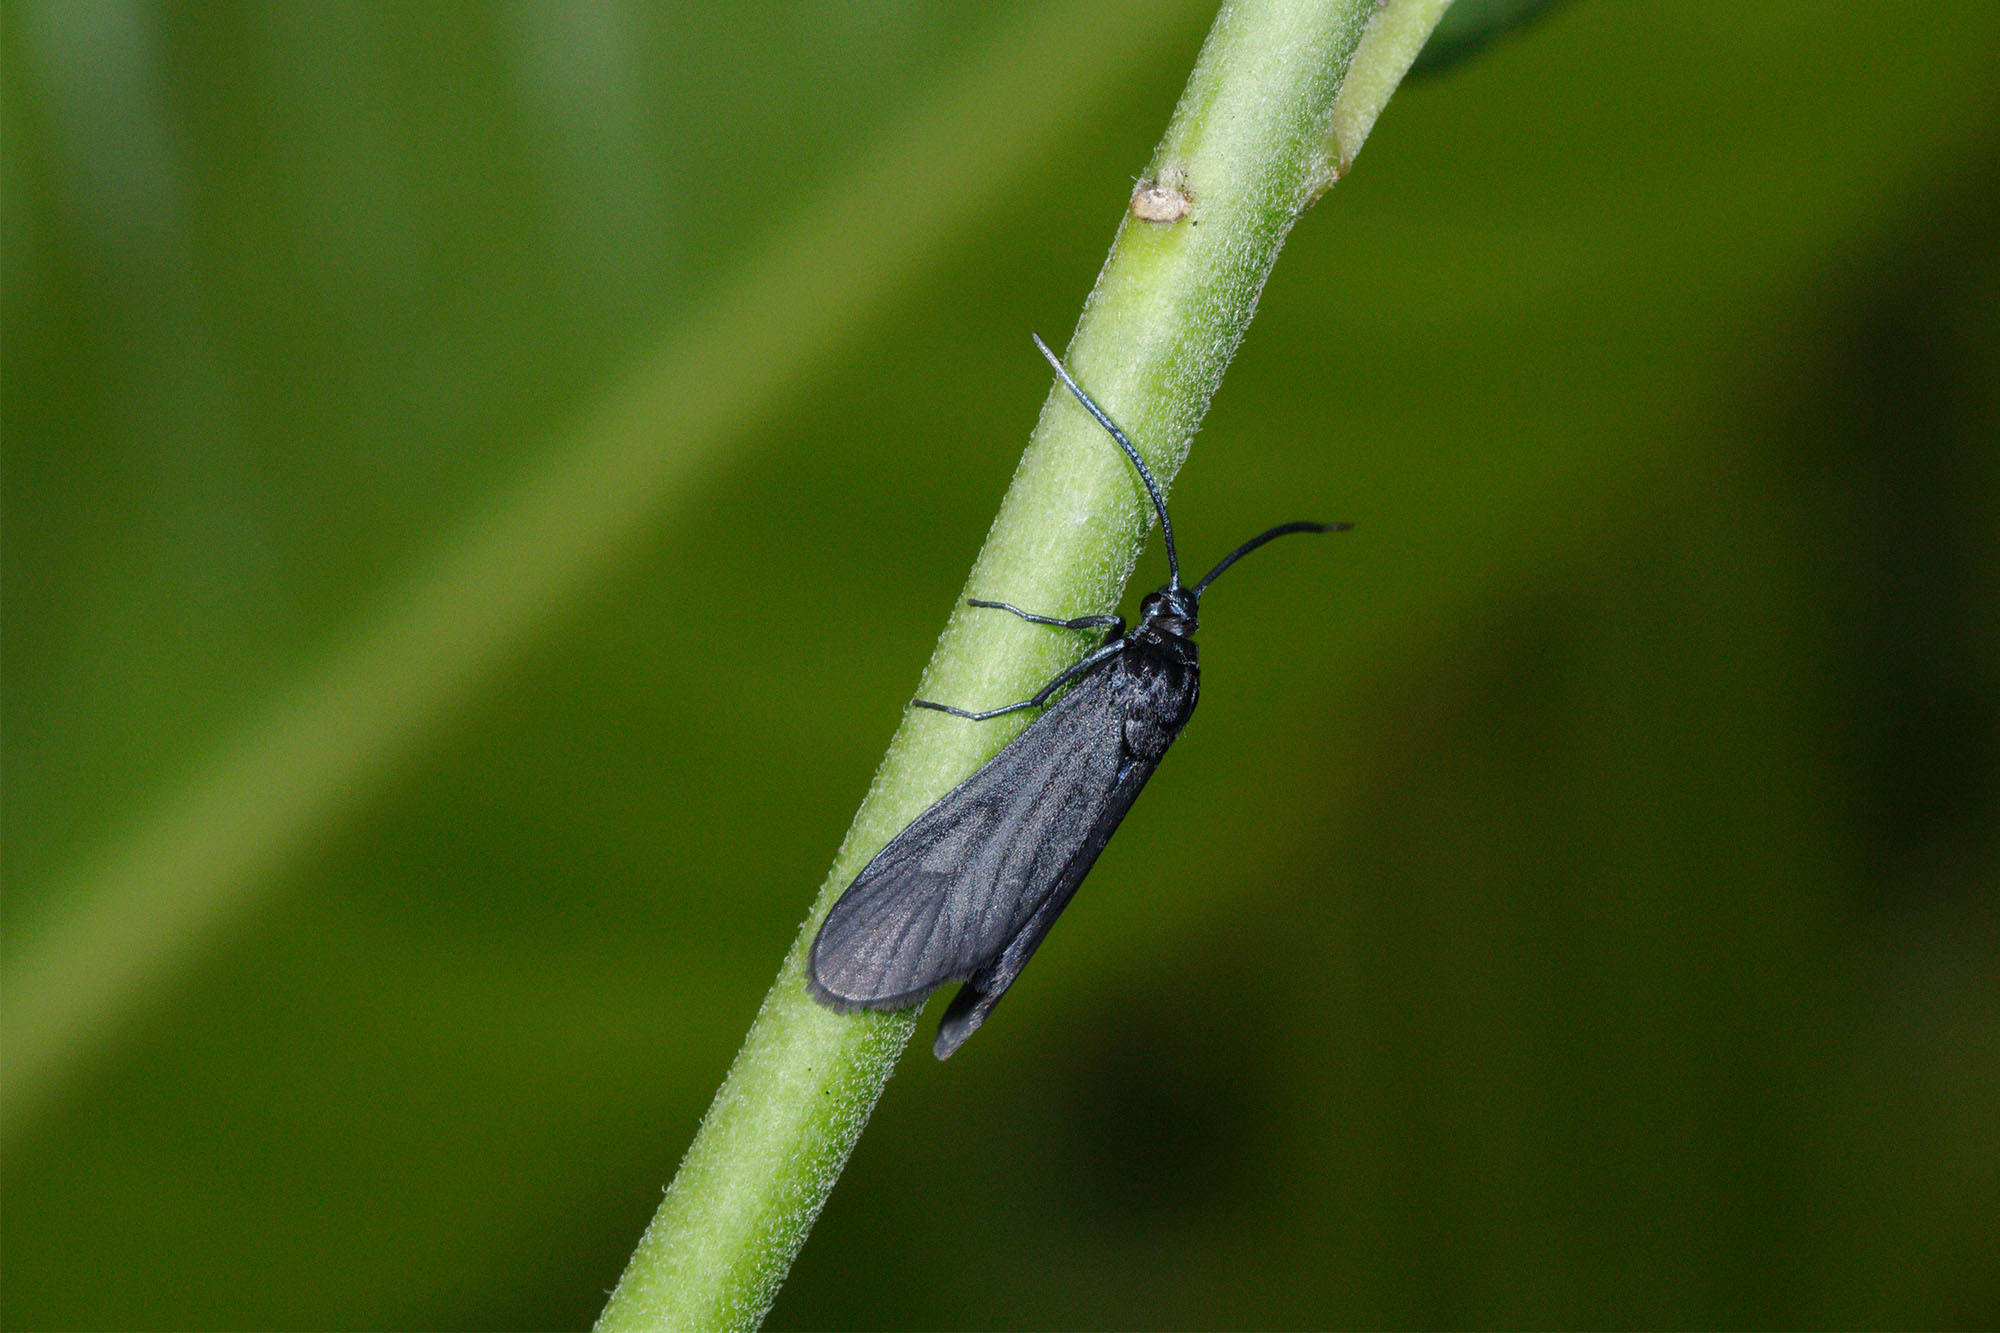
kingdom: Animalia
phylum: Arthropoda
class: Insecta
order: Lepidoptera
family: Zygaenidae
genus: Artona
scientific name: Artona martini
